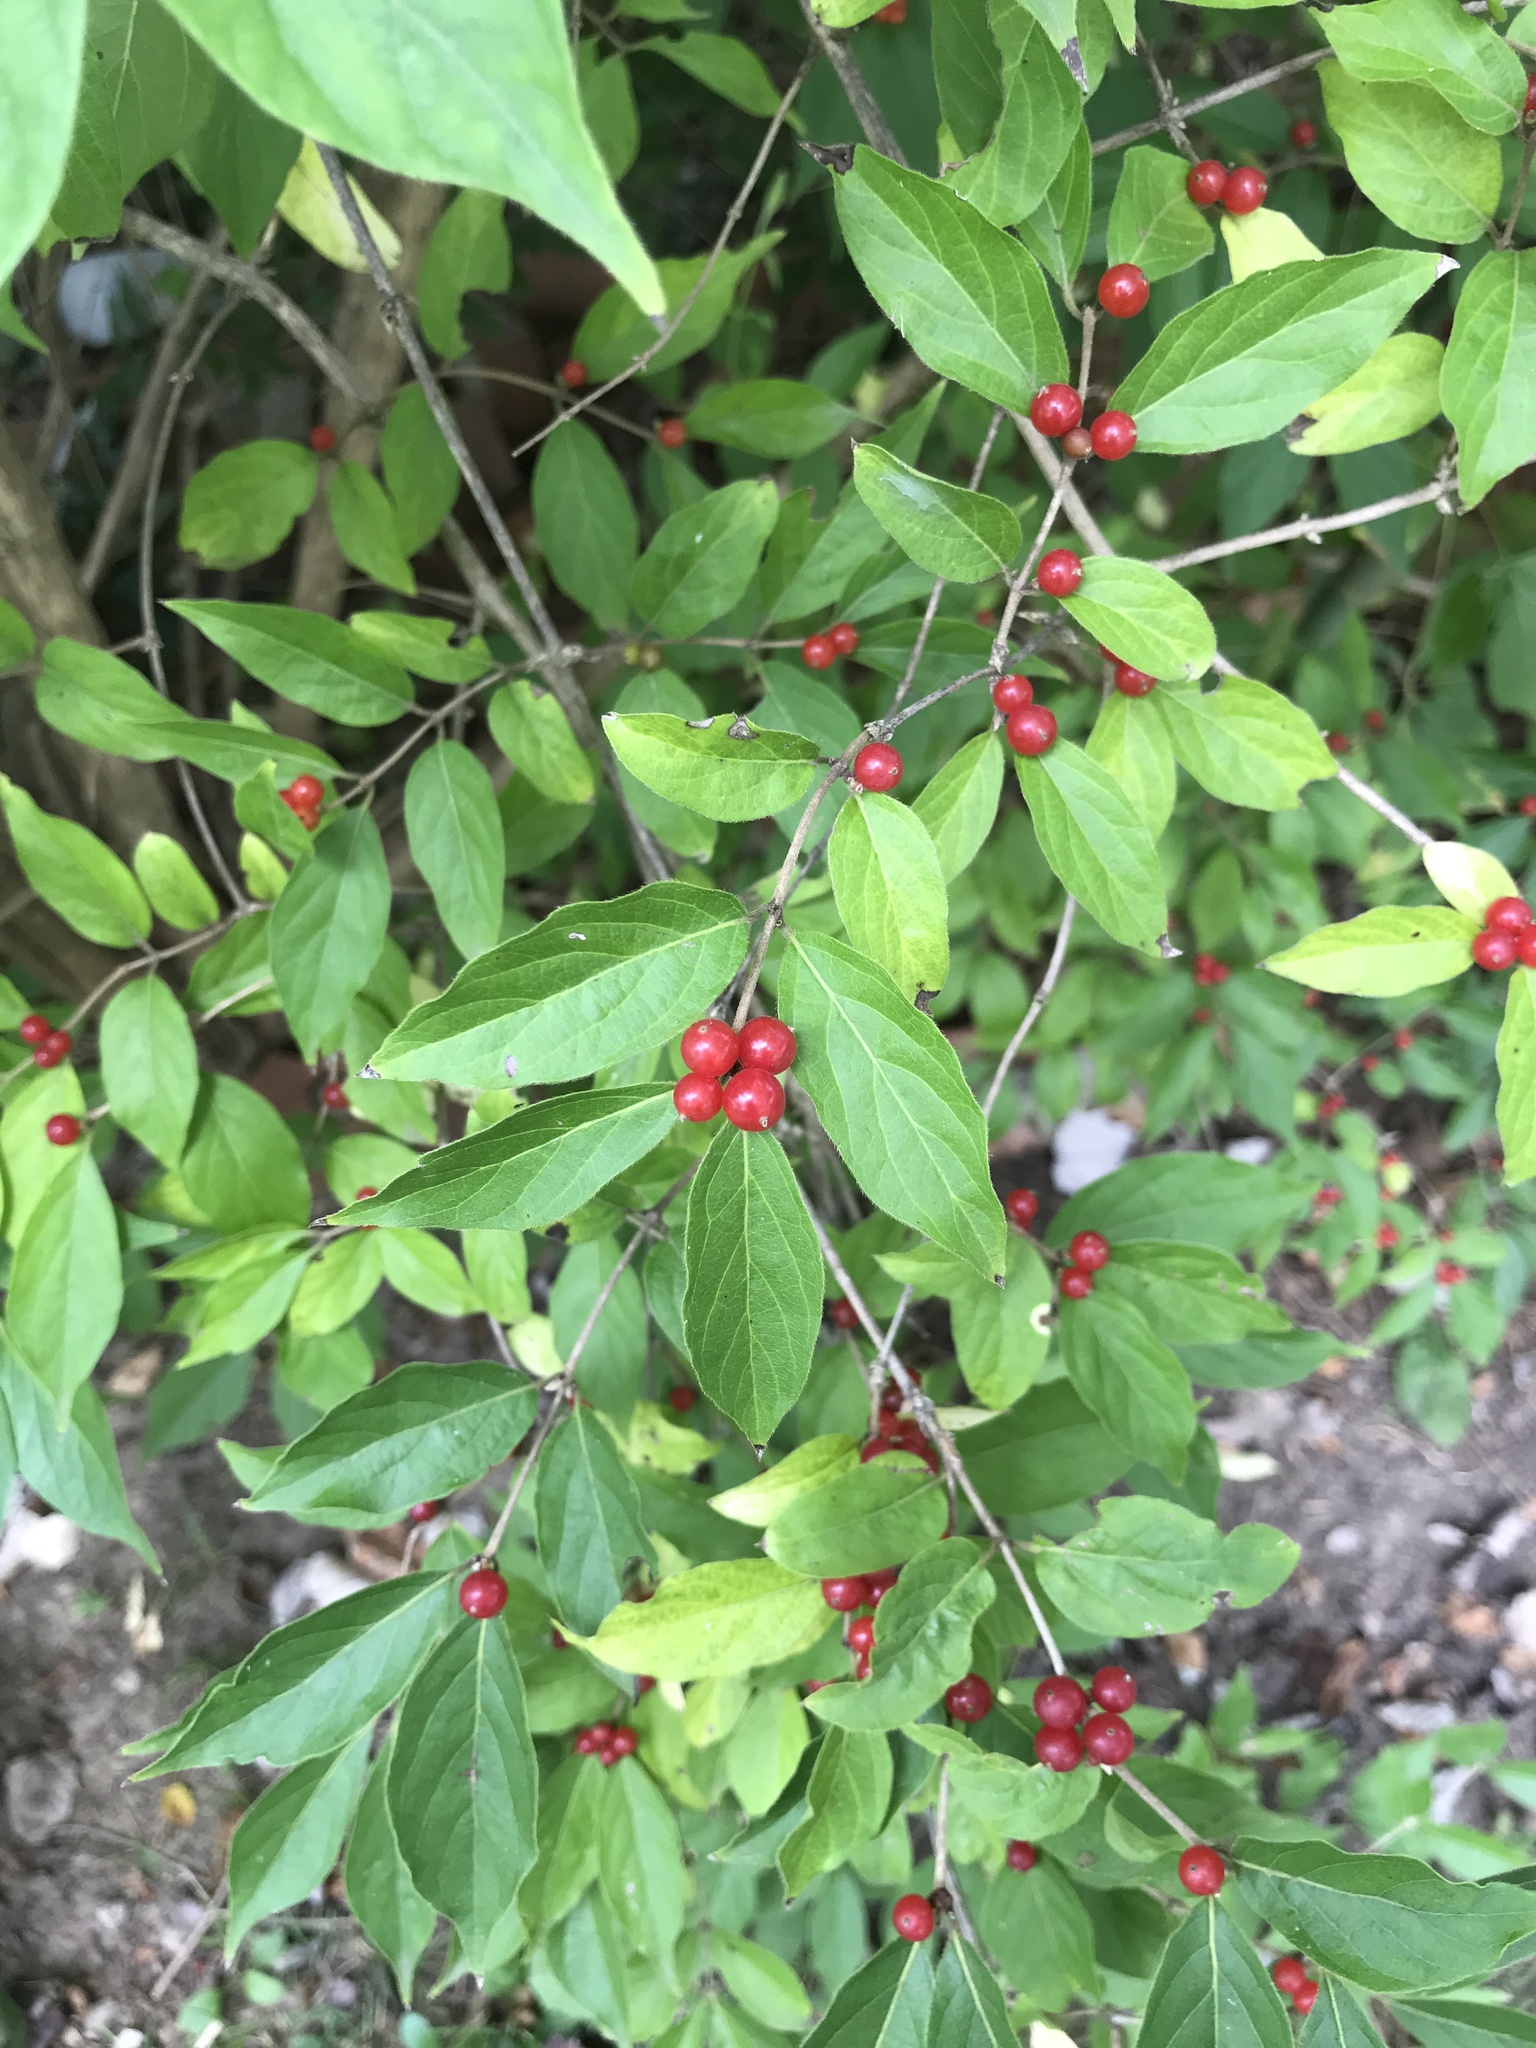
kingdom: Plantae
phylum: Tracheophyta
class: Magnoliopsida
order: Dipsacales
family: Caprifoliaceae
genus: Lonicera
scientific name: Lonicera maackii
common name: Amur honeysuckle
